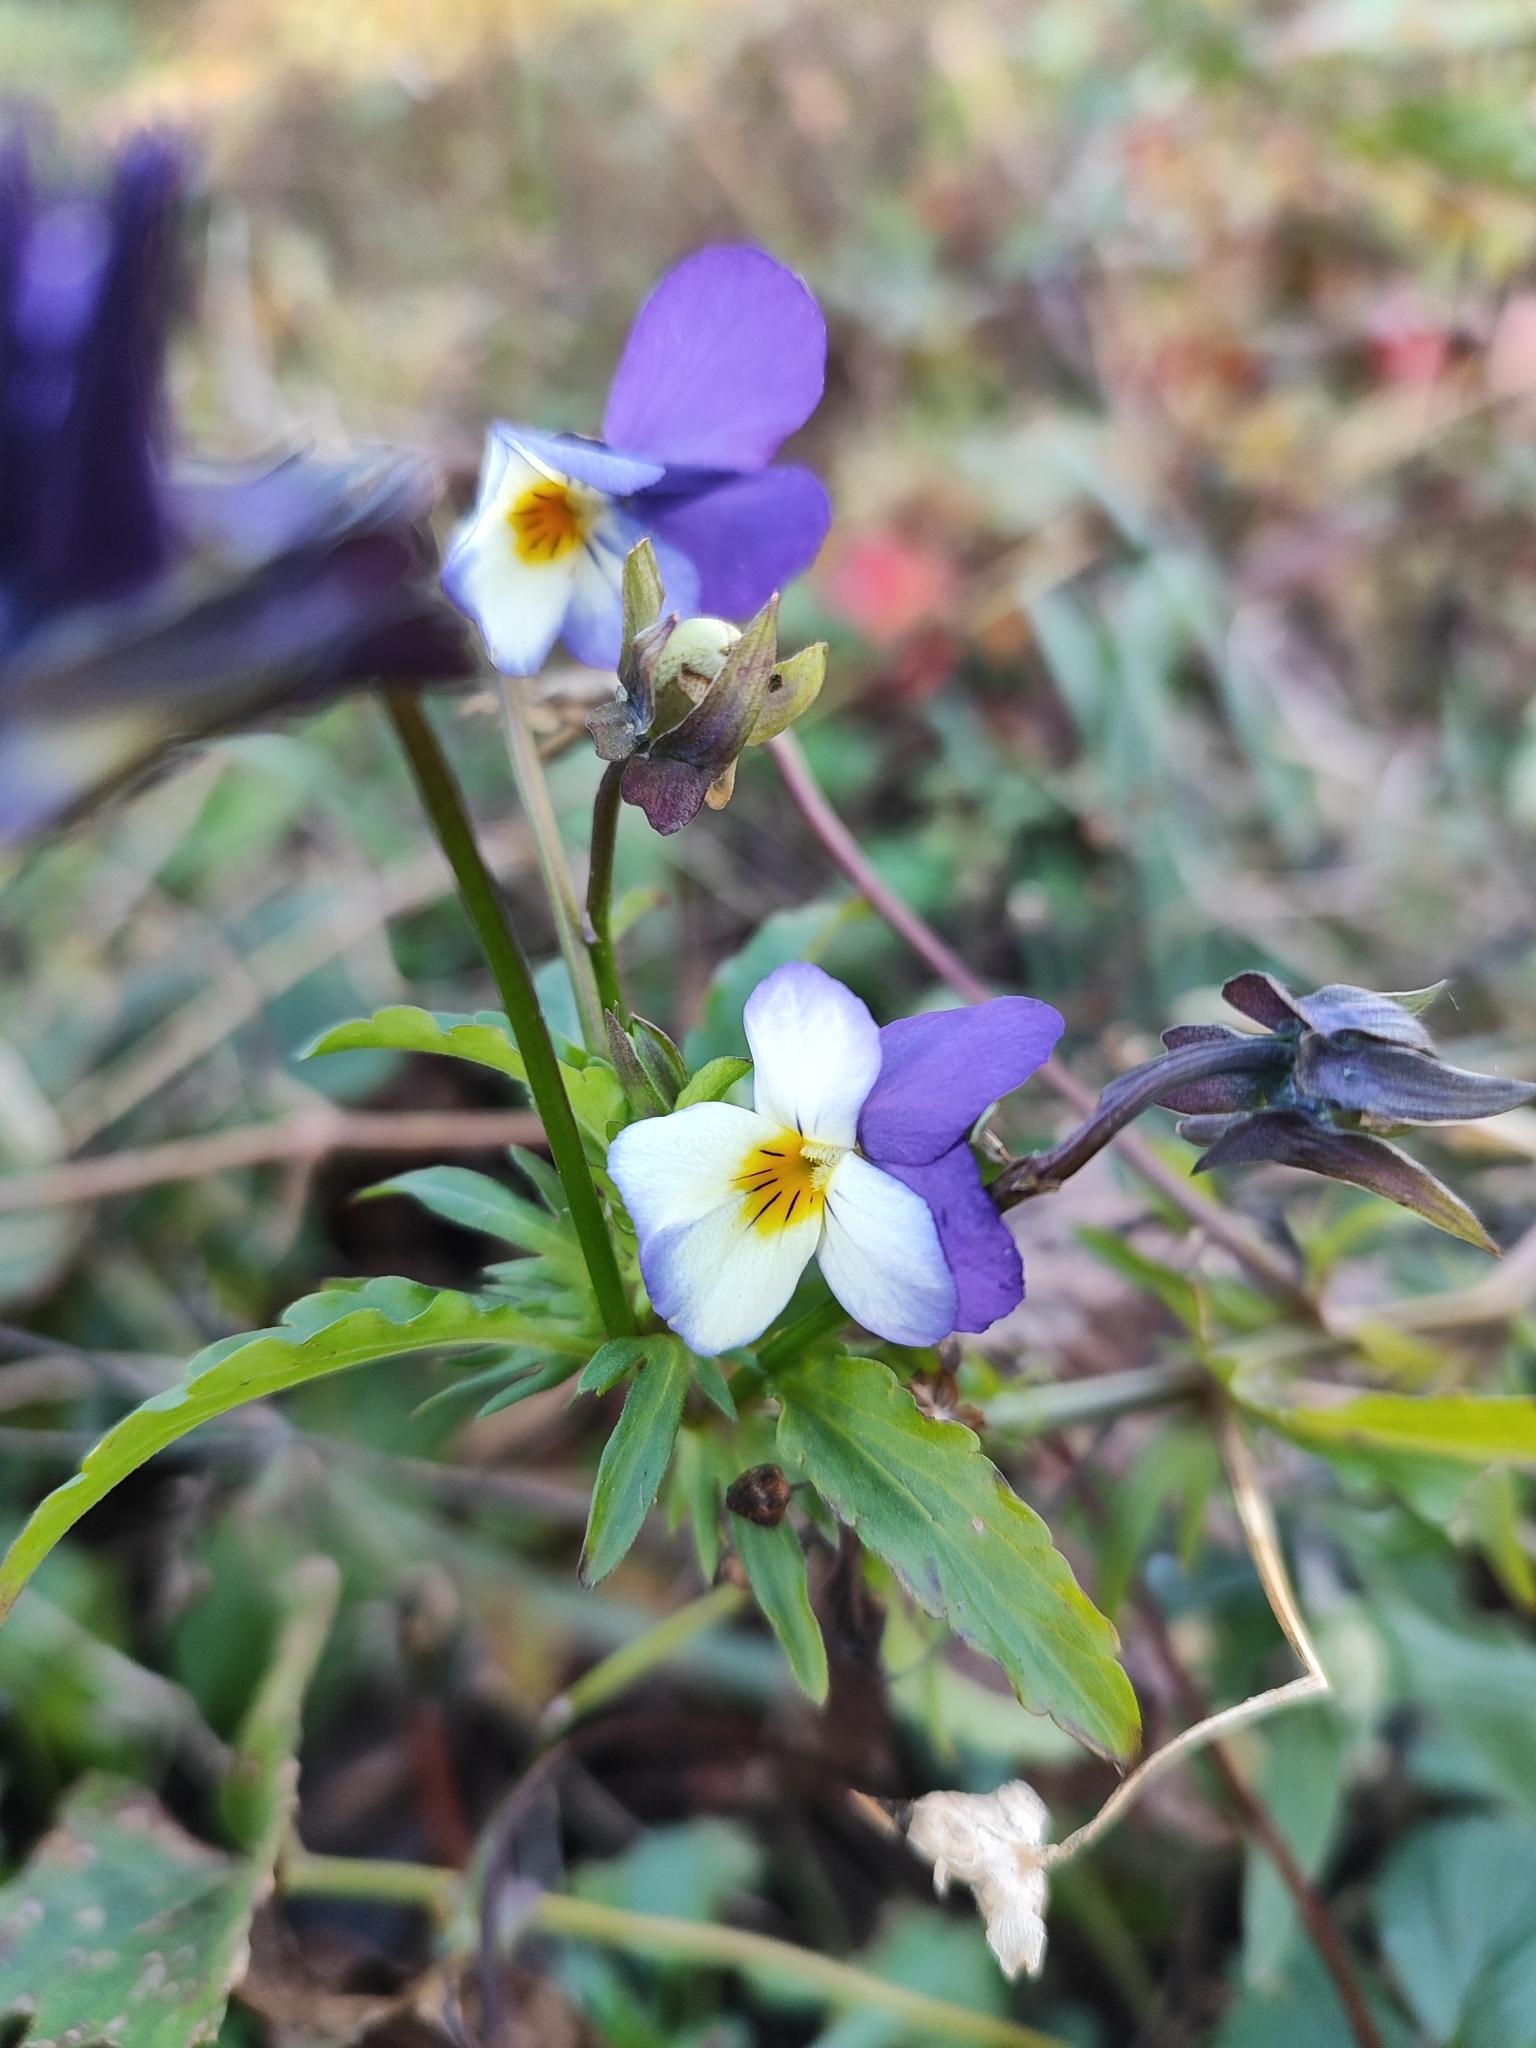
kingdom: Plantae
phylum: Tracheophyta
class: Magnoliopsida
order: Malpighiales
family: Violaceae
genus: Viola
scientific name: Viola tricolor
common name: Pansy
